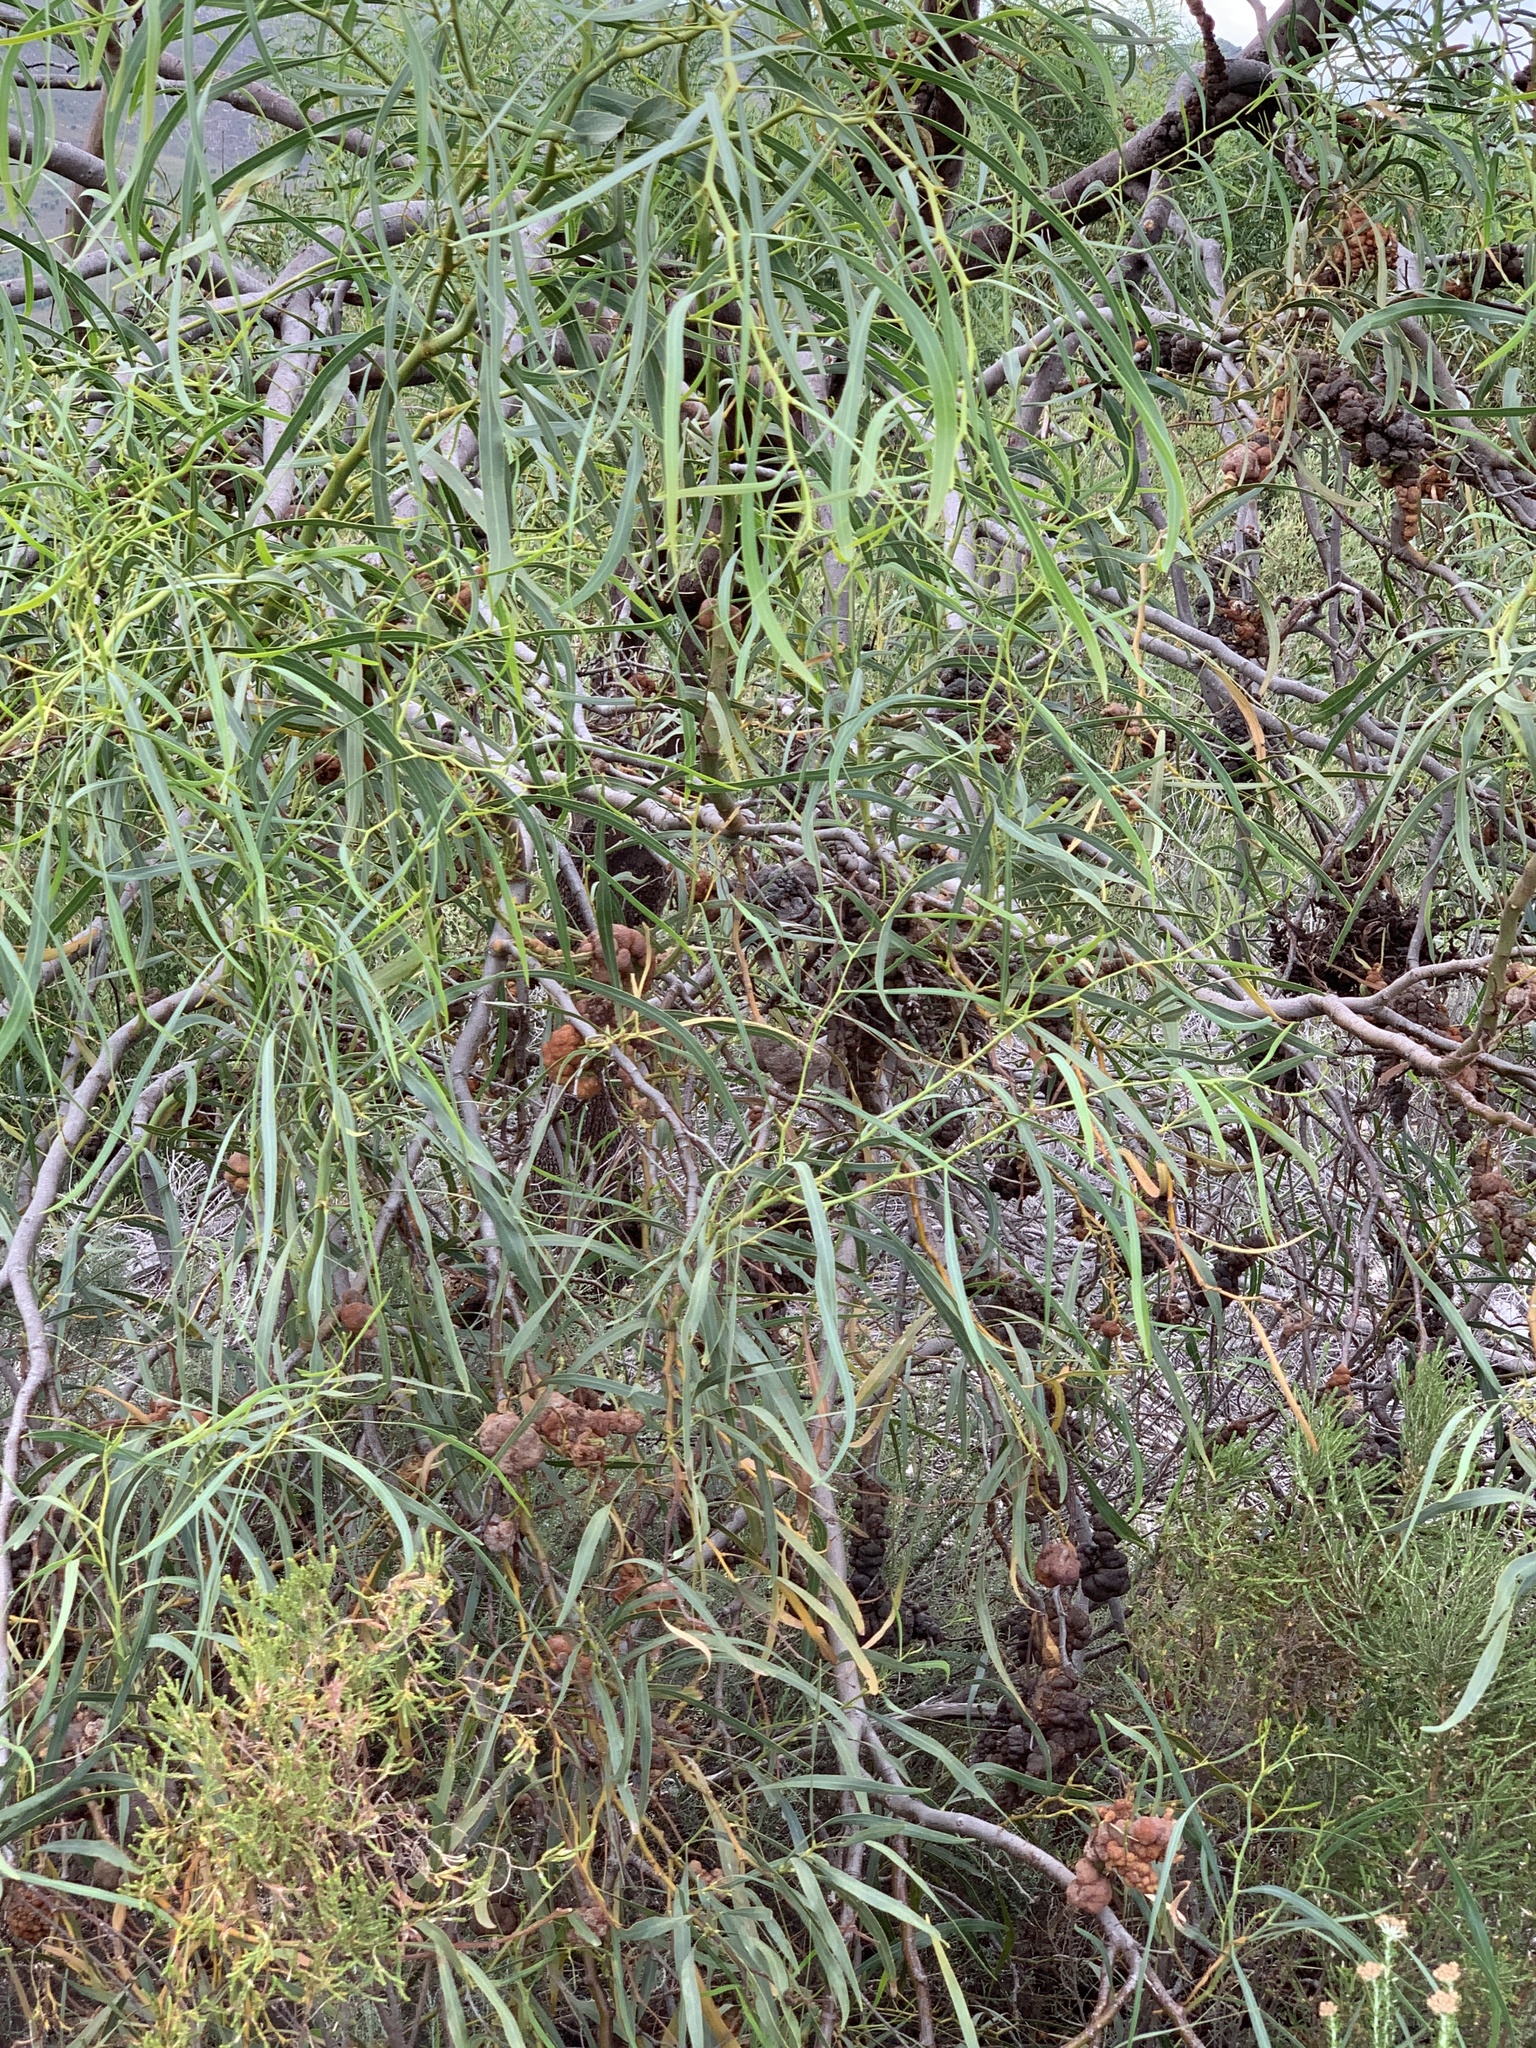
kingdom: Plantae
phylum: Tracheophyta
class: Magnoliopsida
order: Fabales
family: Fabaceae
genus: Acacia
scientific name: Acacia saligna
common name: Orange wattle
